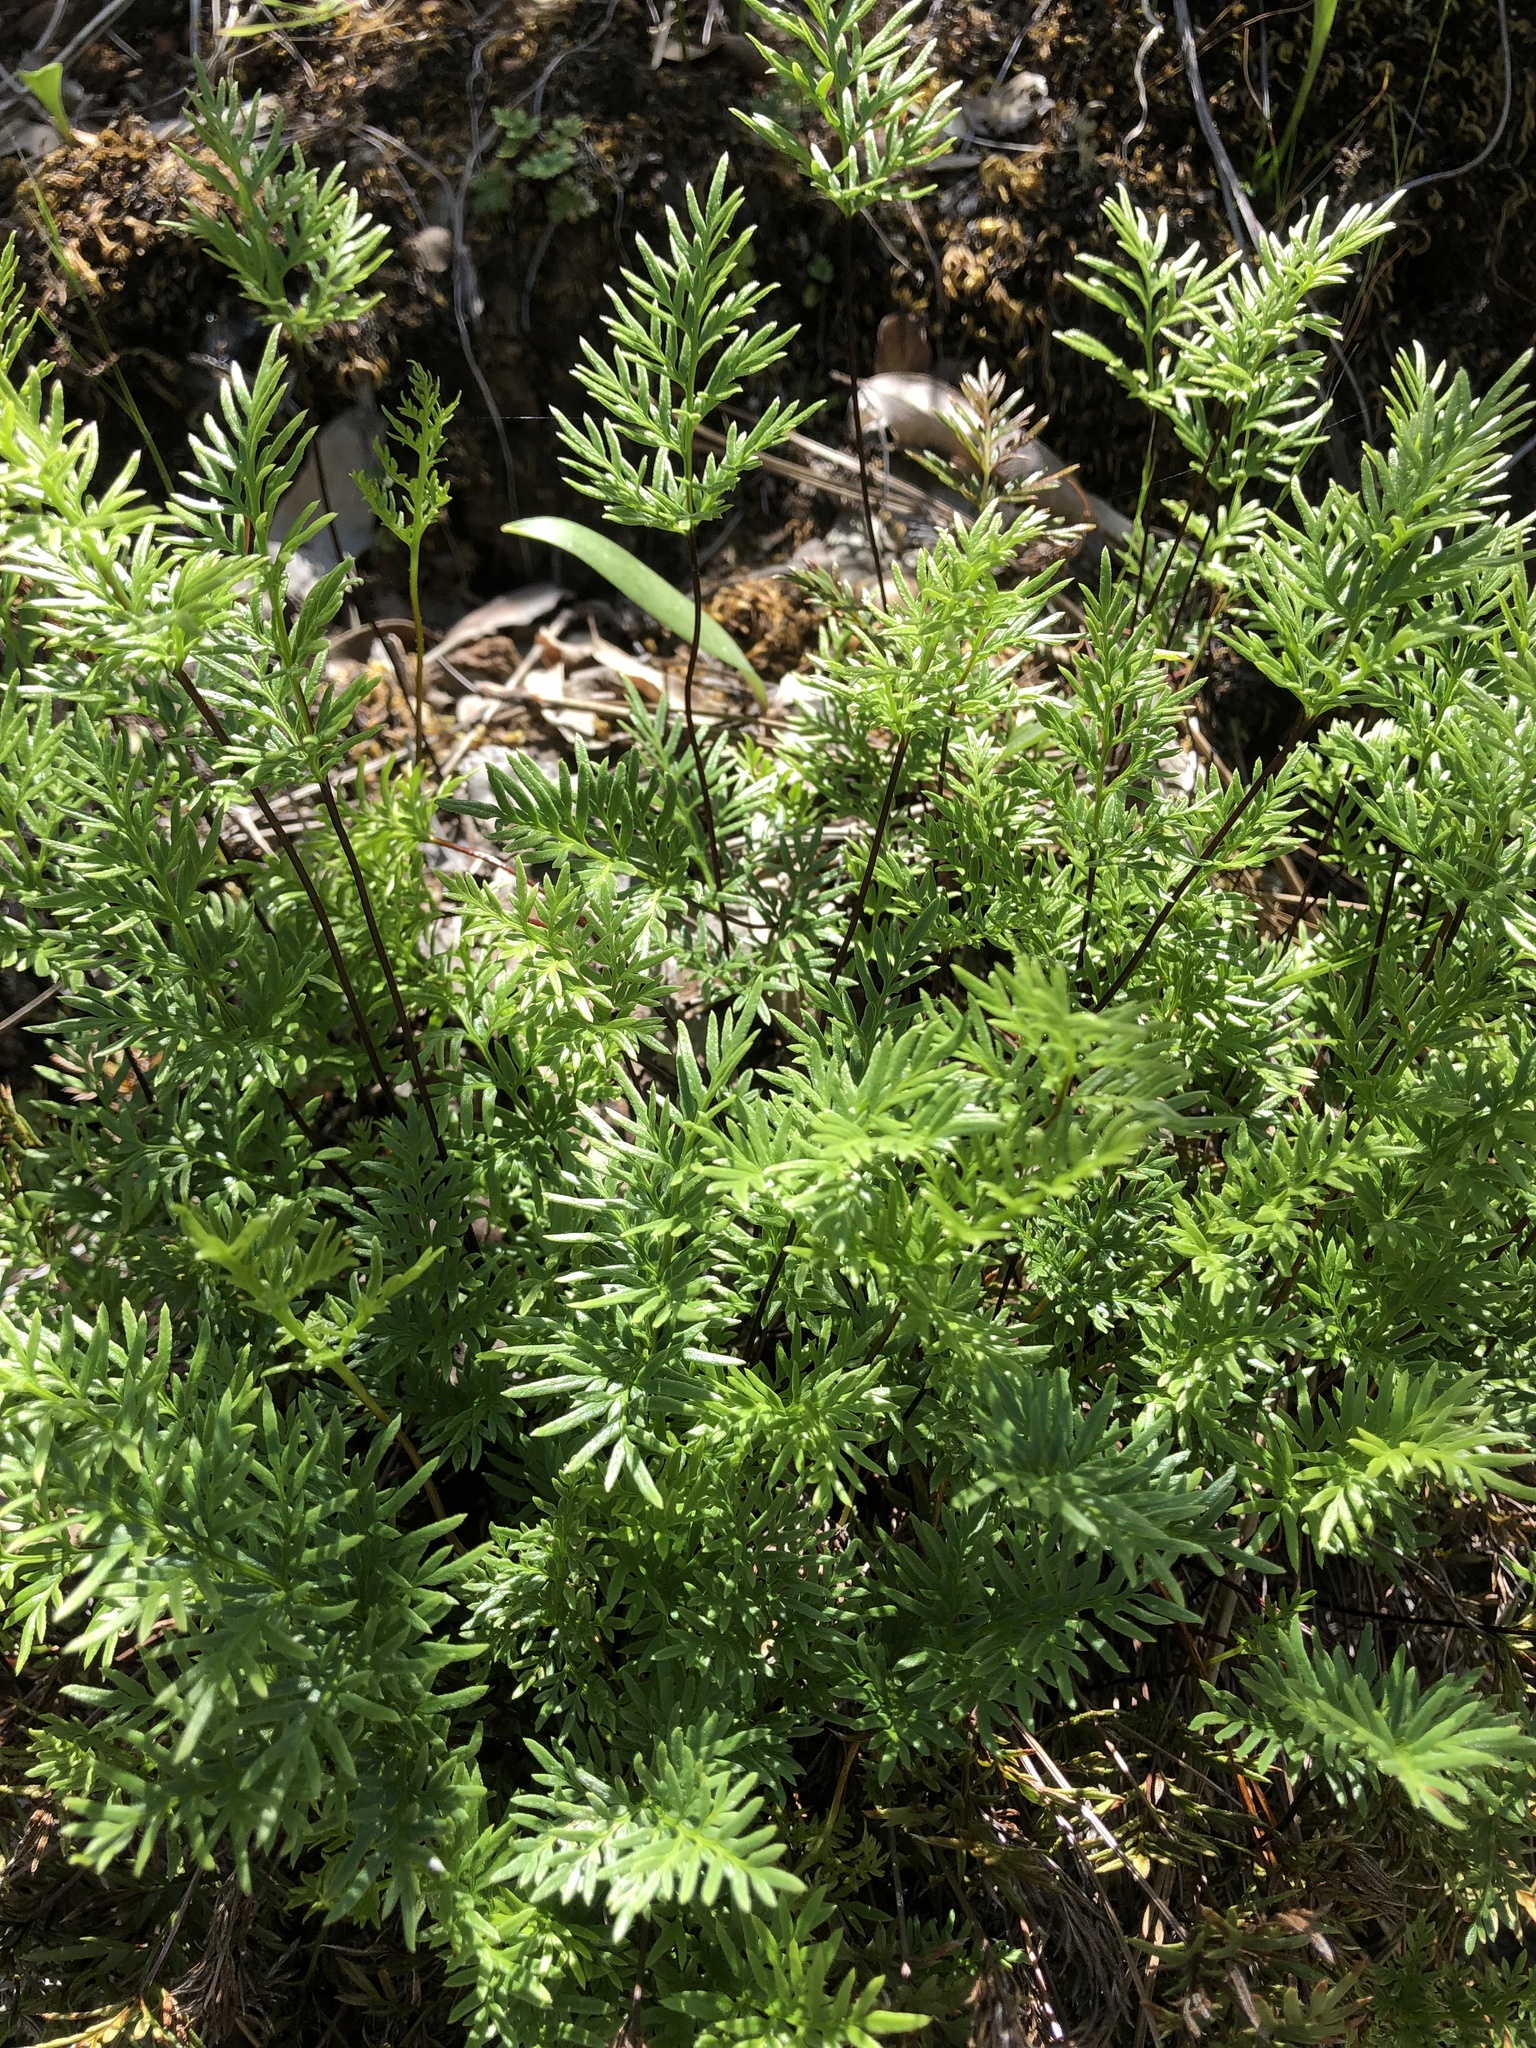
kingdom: Plantae
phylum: Tracheophyta
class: Polypodiopsida
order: Polypodiales
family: Pteridaceae
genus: Aspidotis
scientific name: Aspidotis densa
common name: Indian's dream
